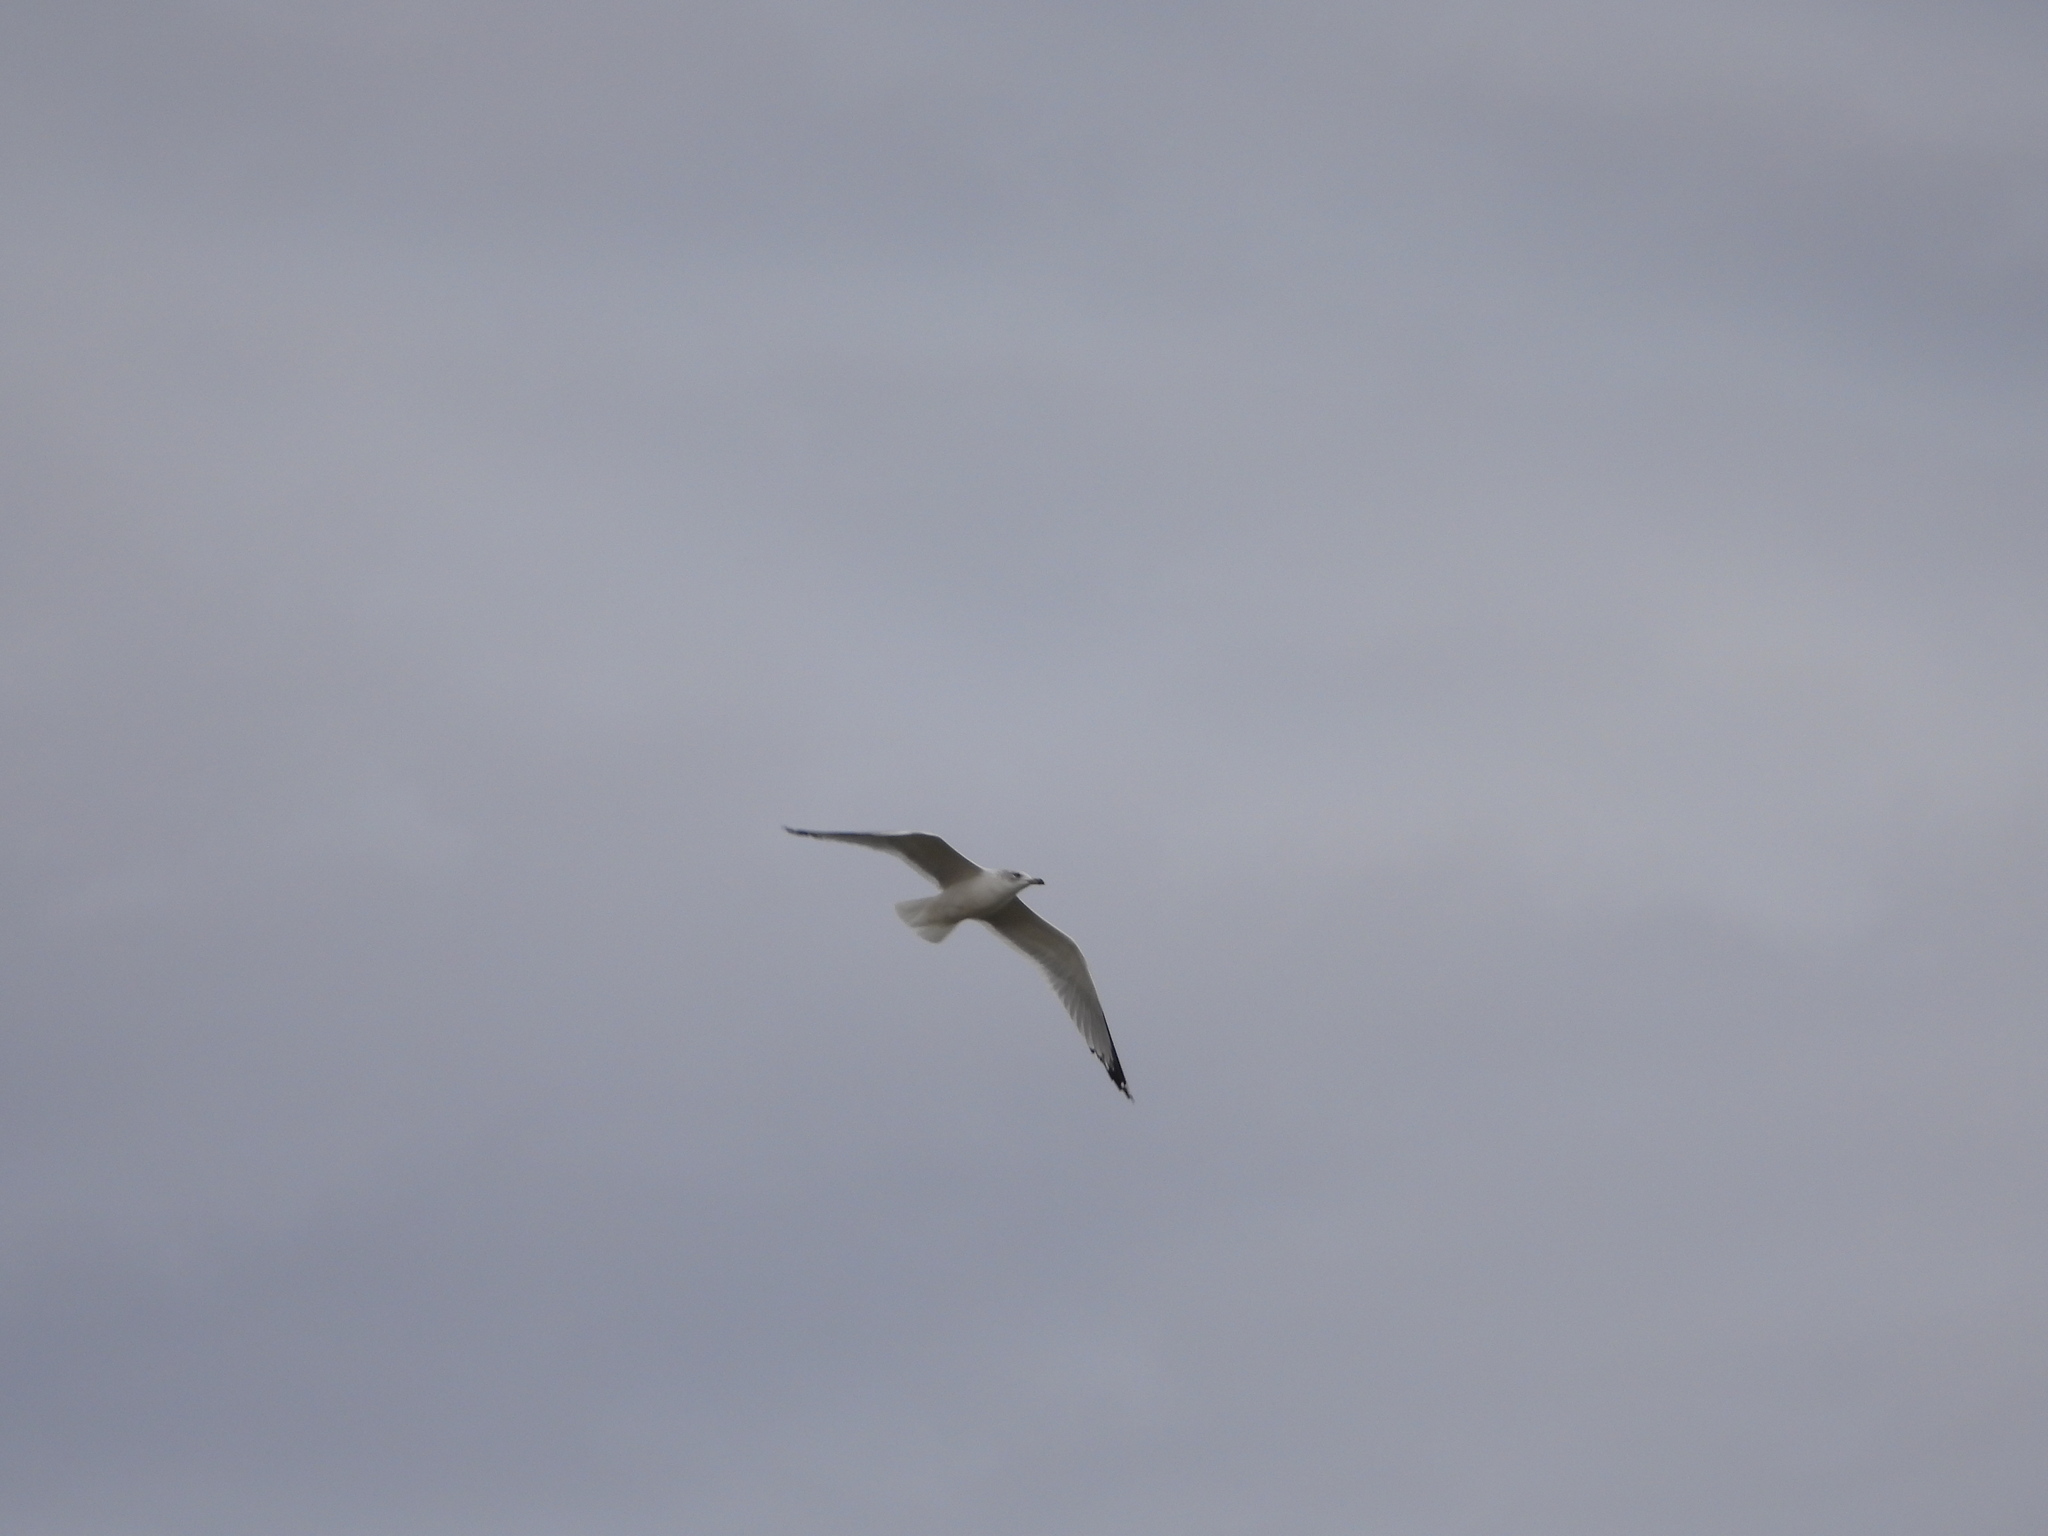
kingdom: Animalia
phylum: Chordata
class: Aves
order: Charadriiformes
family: Laridae
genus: Larus
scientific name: Larus delawarensis
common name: Ring-billed gull
